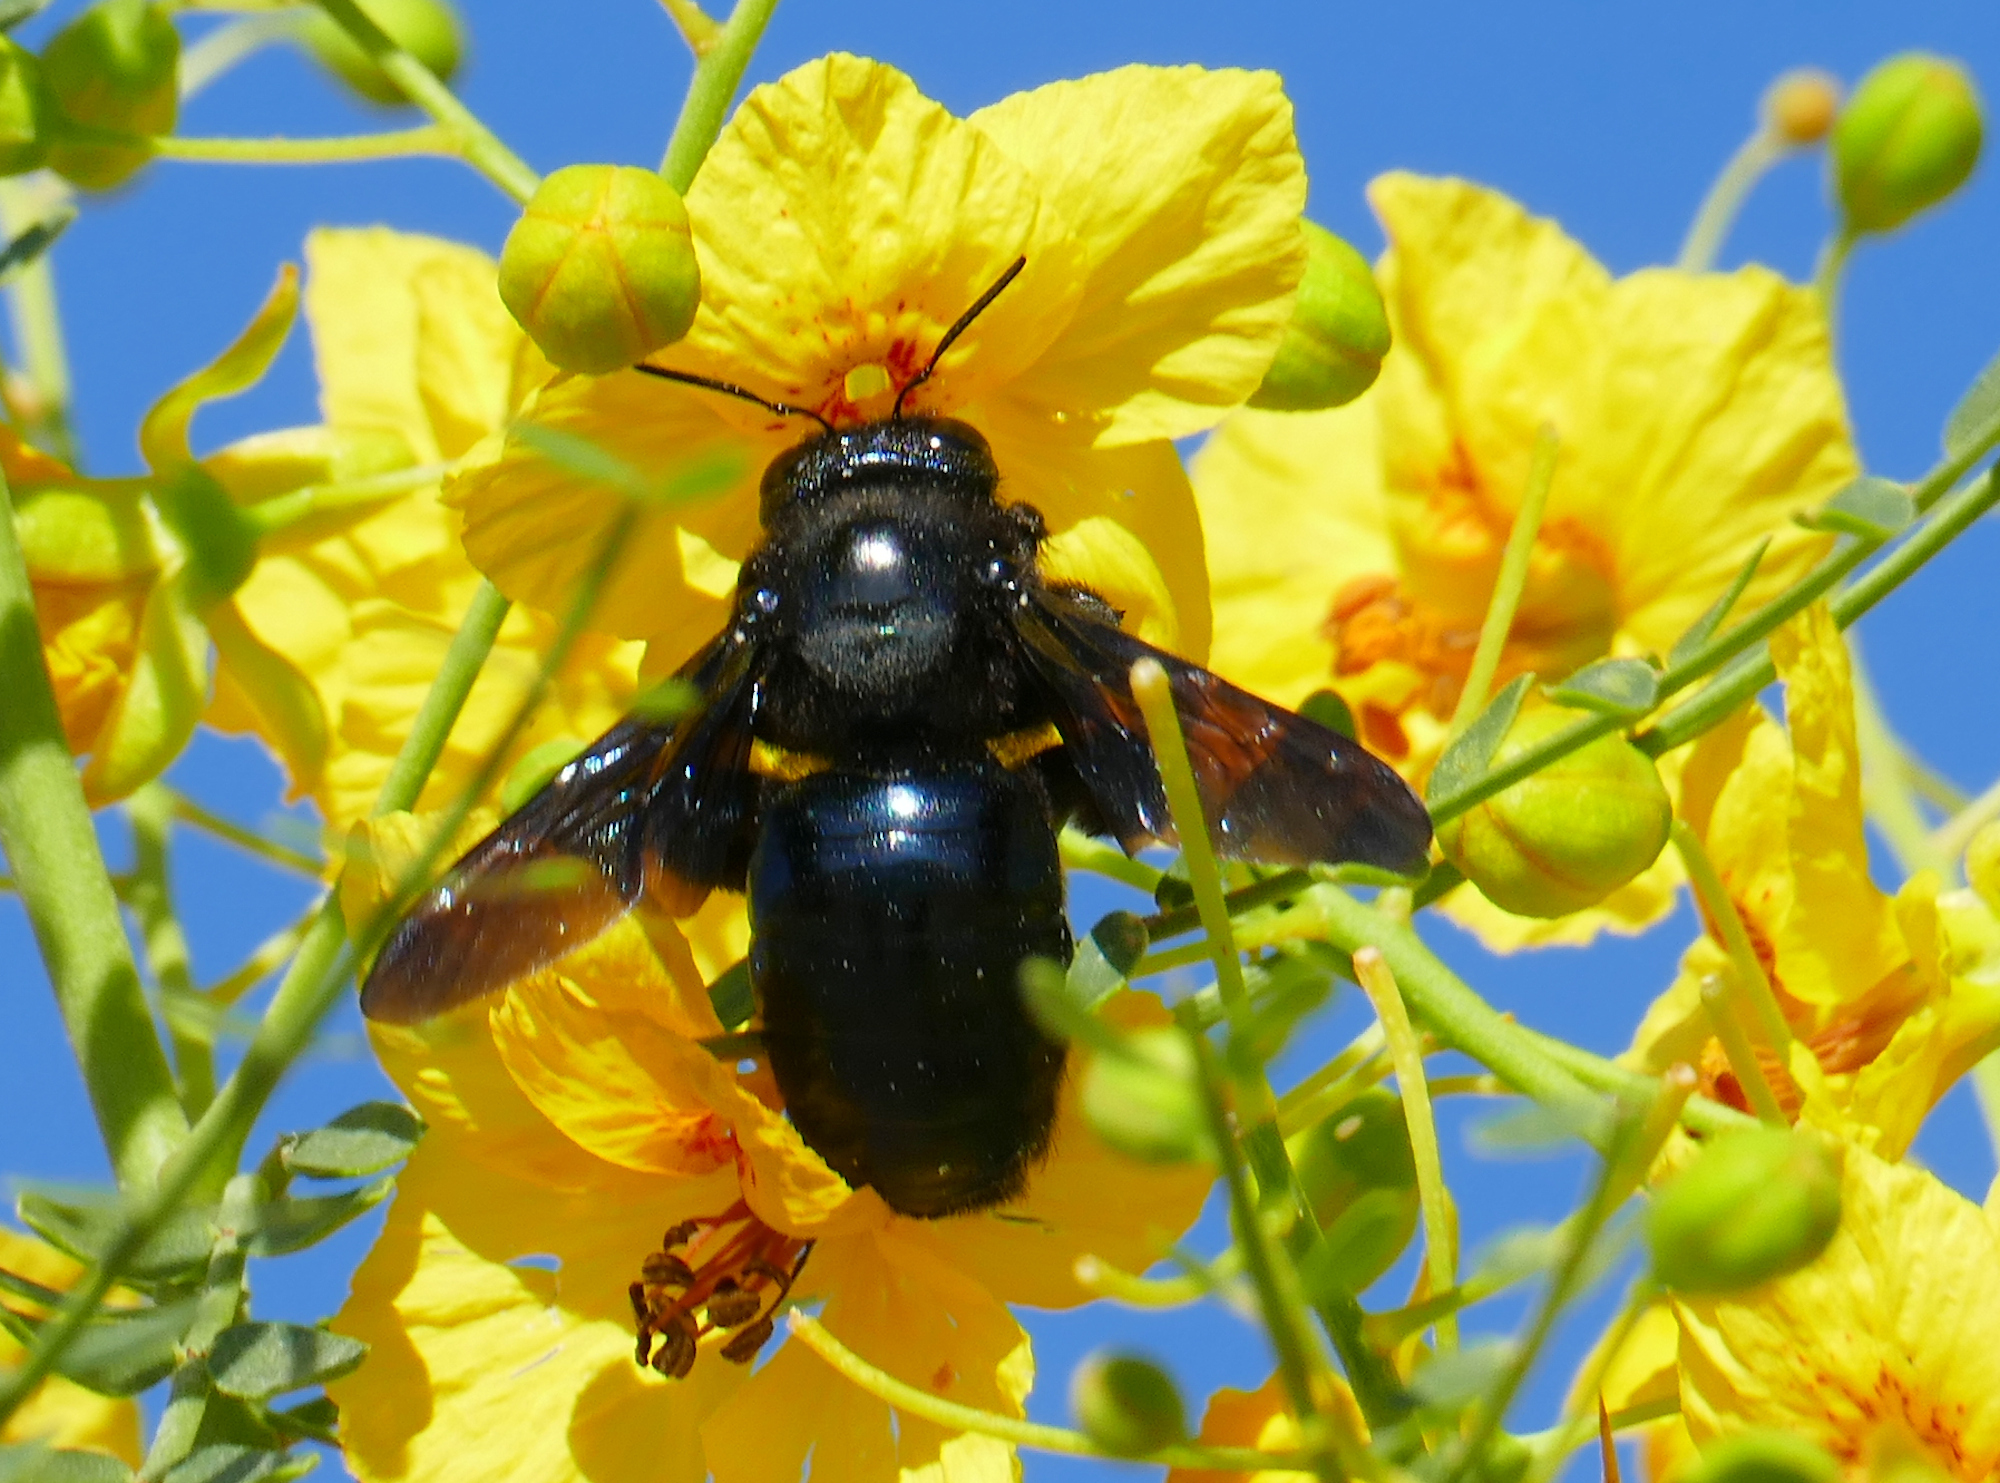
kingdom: Animalia
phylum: Arthropoda
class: Insecta
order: Hymenoptera
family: Apidae
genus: Xylocopa
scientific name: Xylocopa californica
